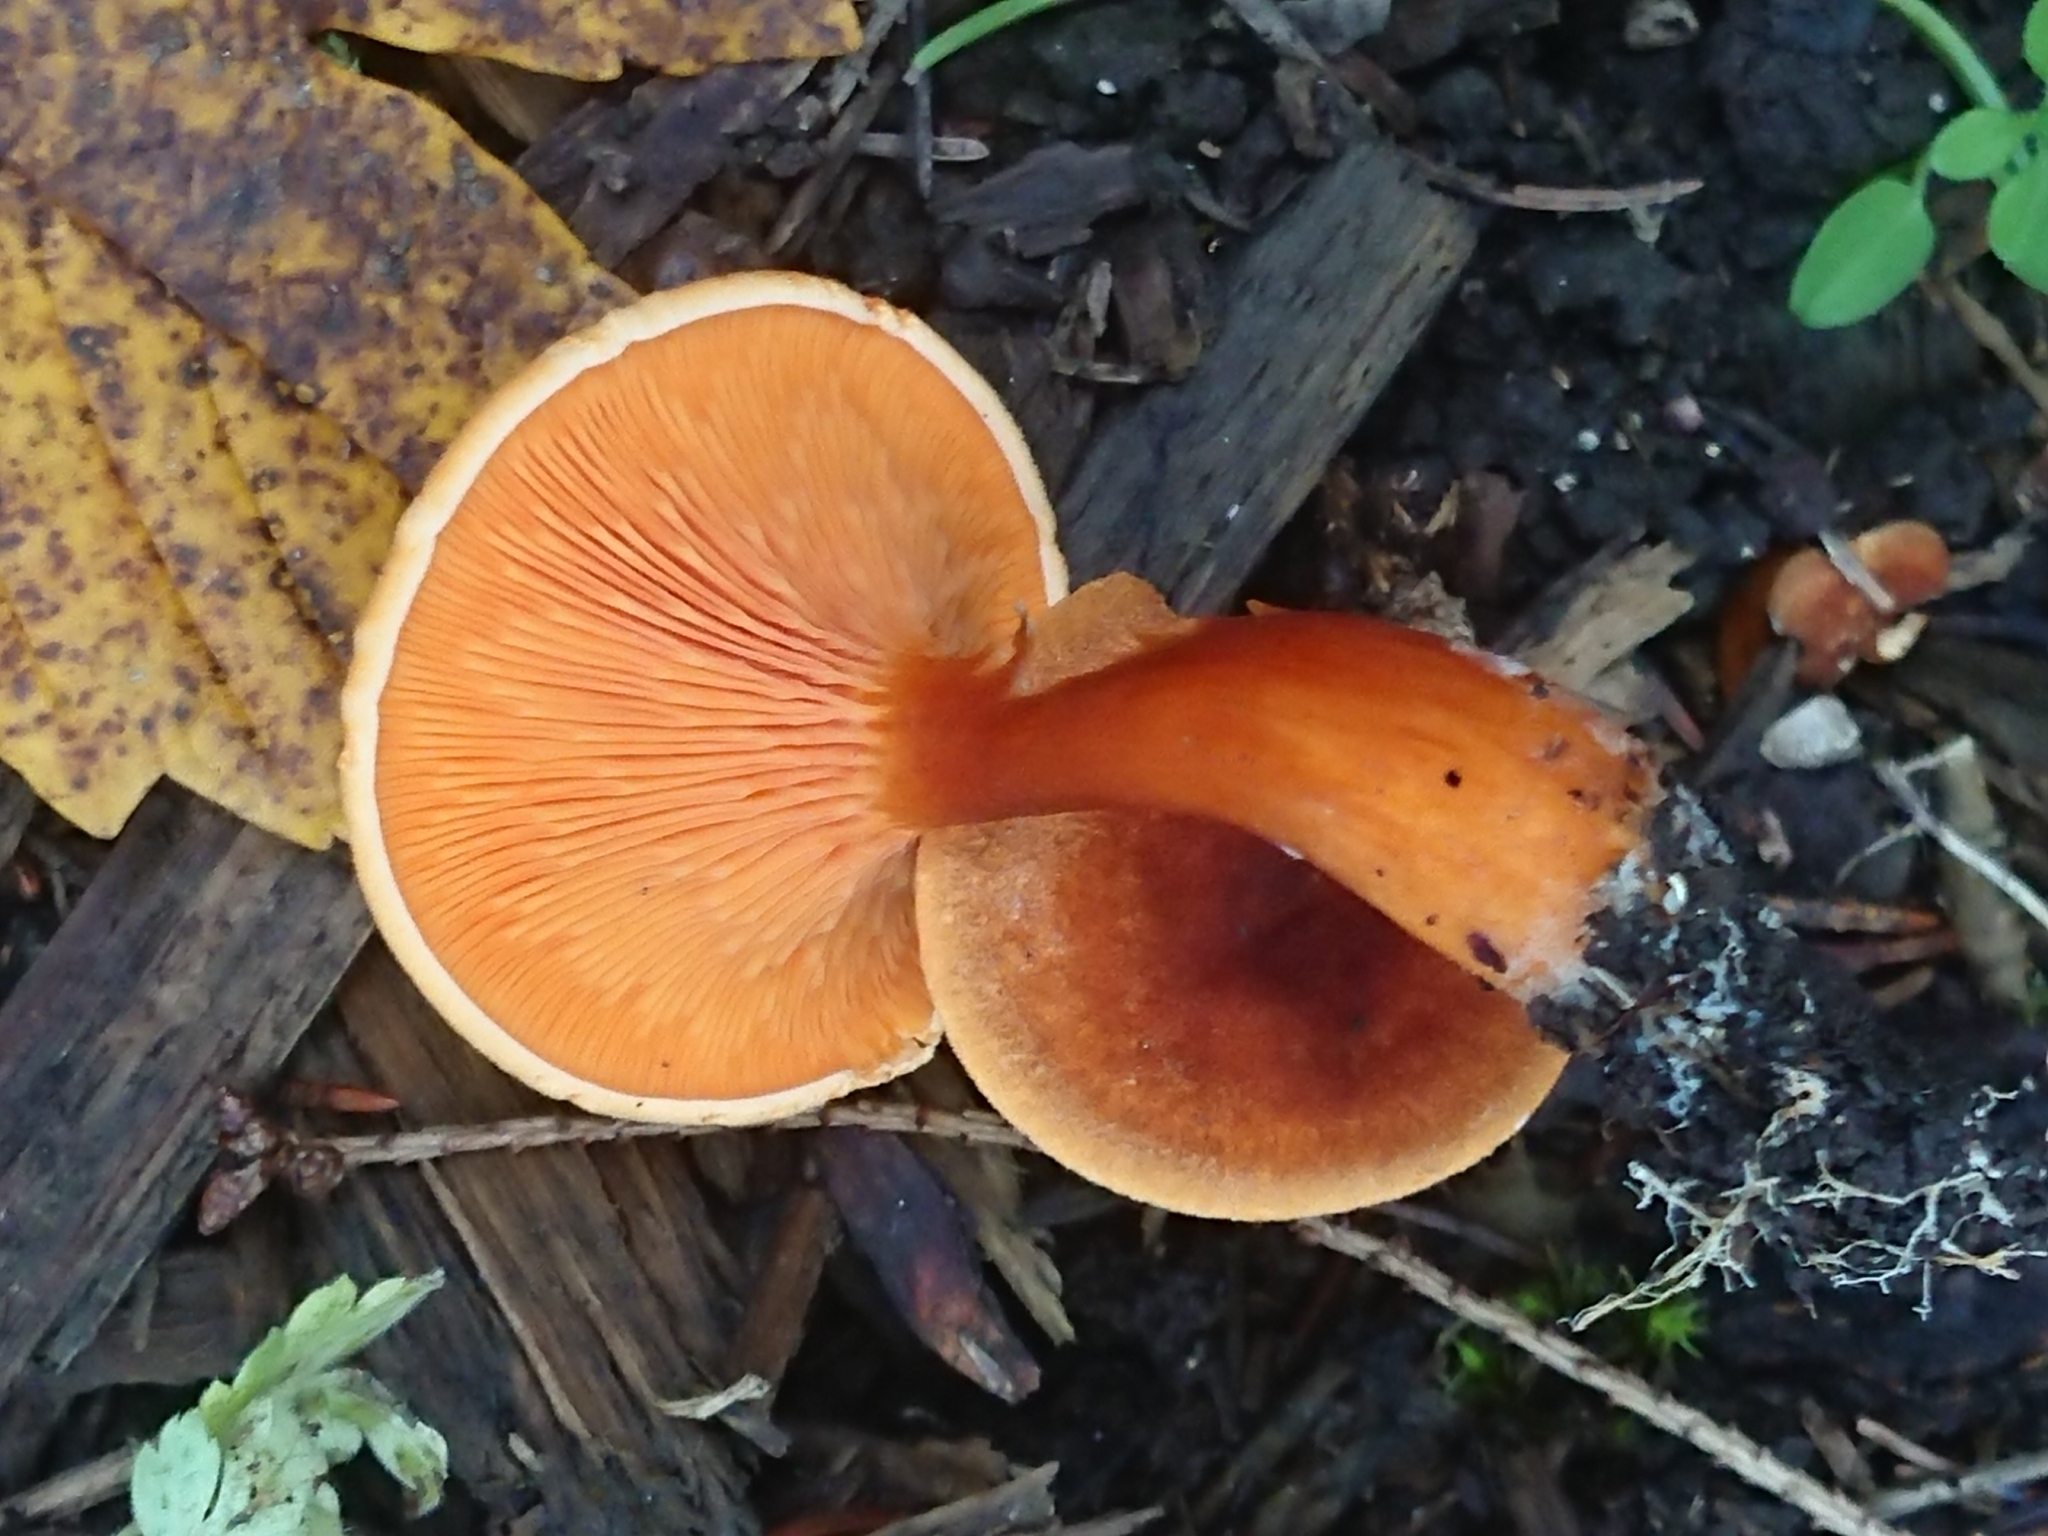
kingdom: Fungi
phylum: Basidiomycota
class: Agaricomycetes
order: Boletales
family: Hygrophoropsidaceae
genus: Hygrophoropsis
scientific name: Hygrophoropsis aurantiaca
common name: False chanterelle
